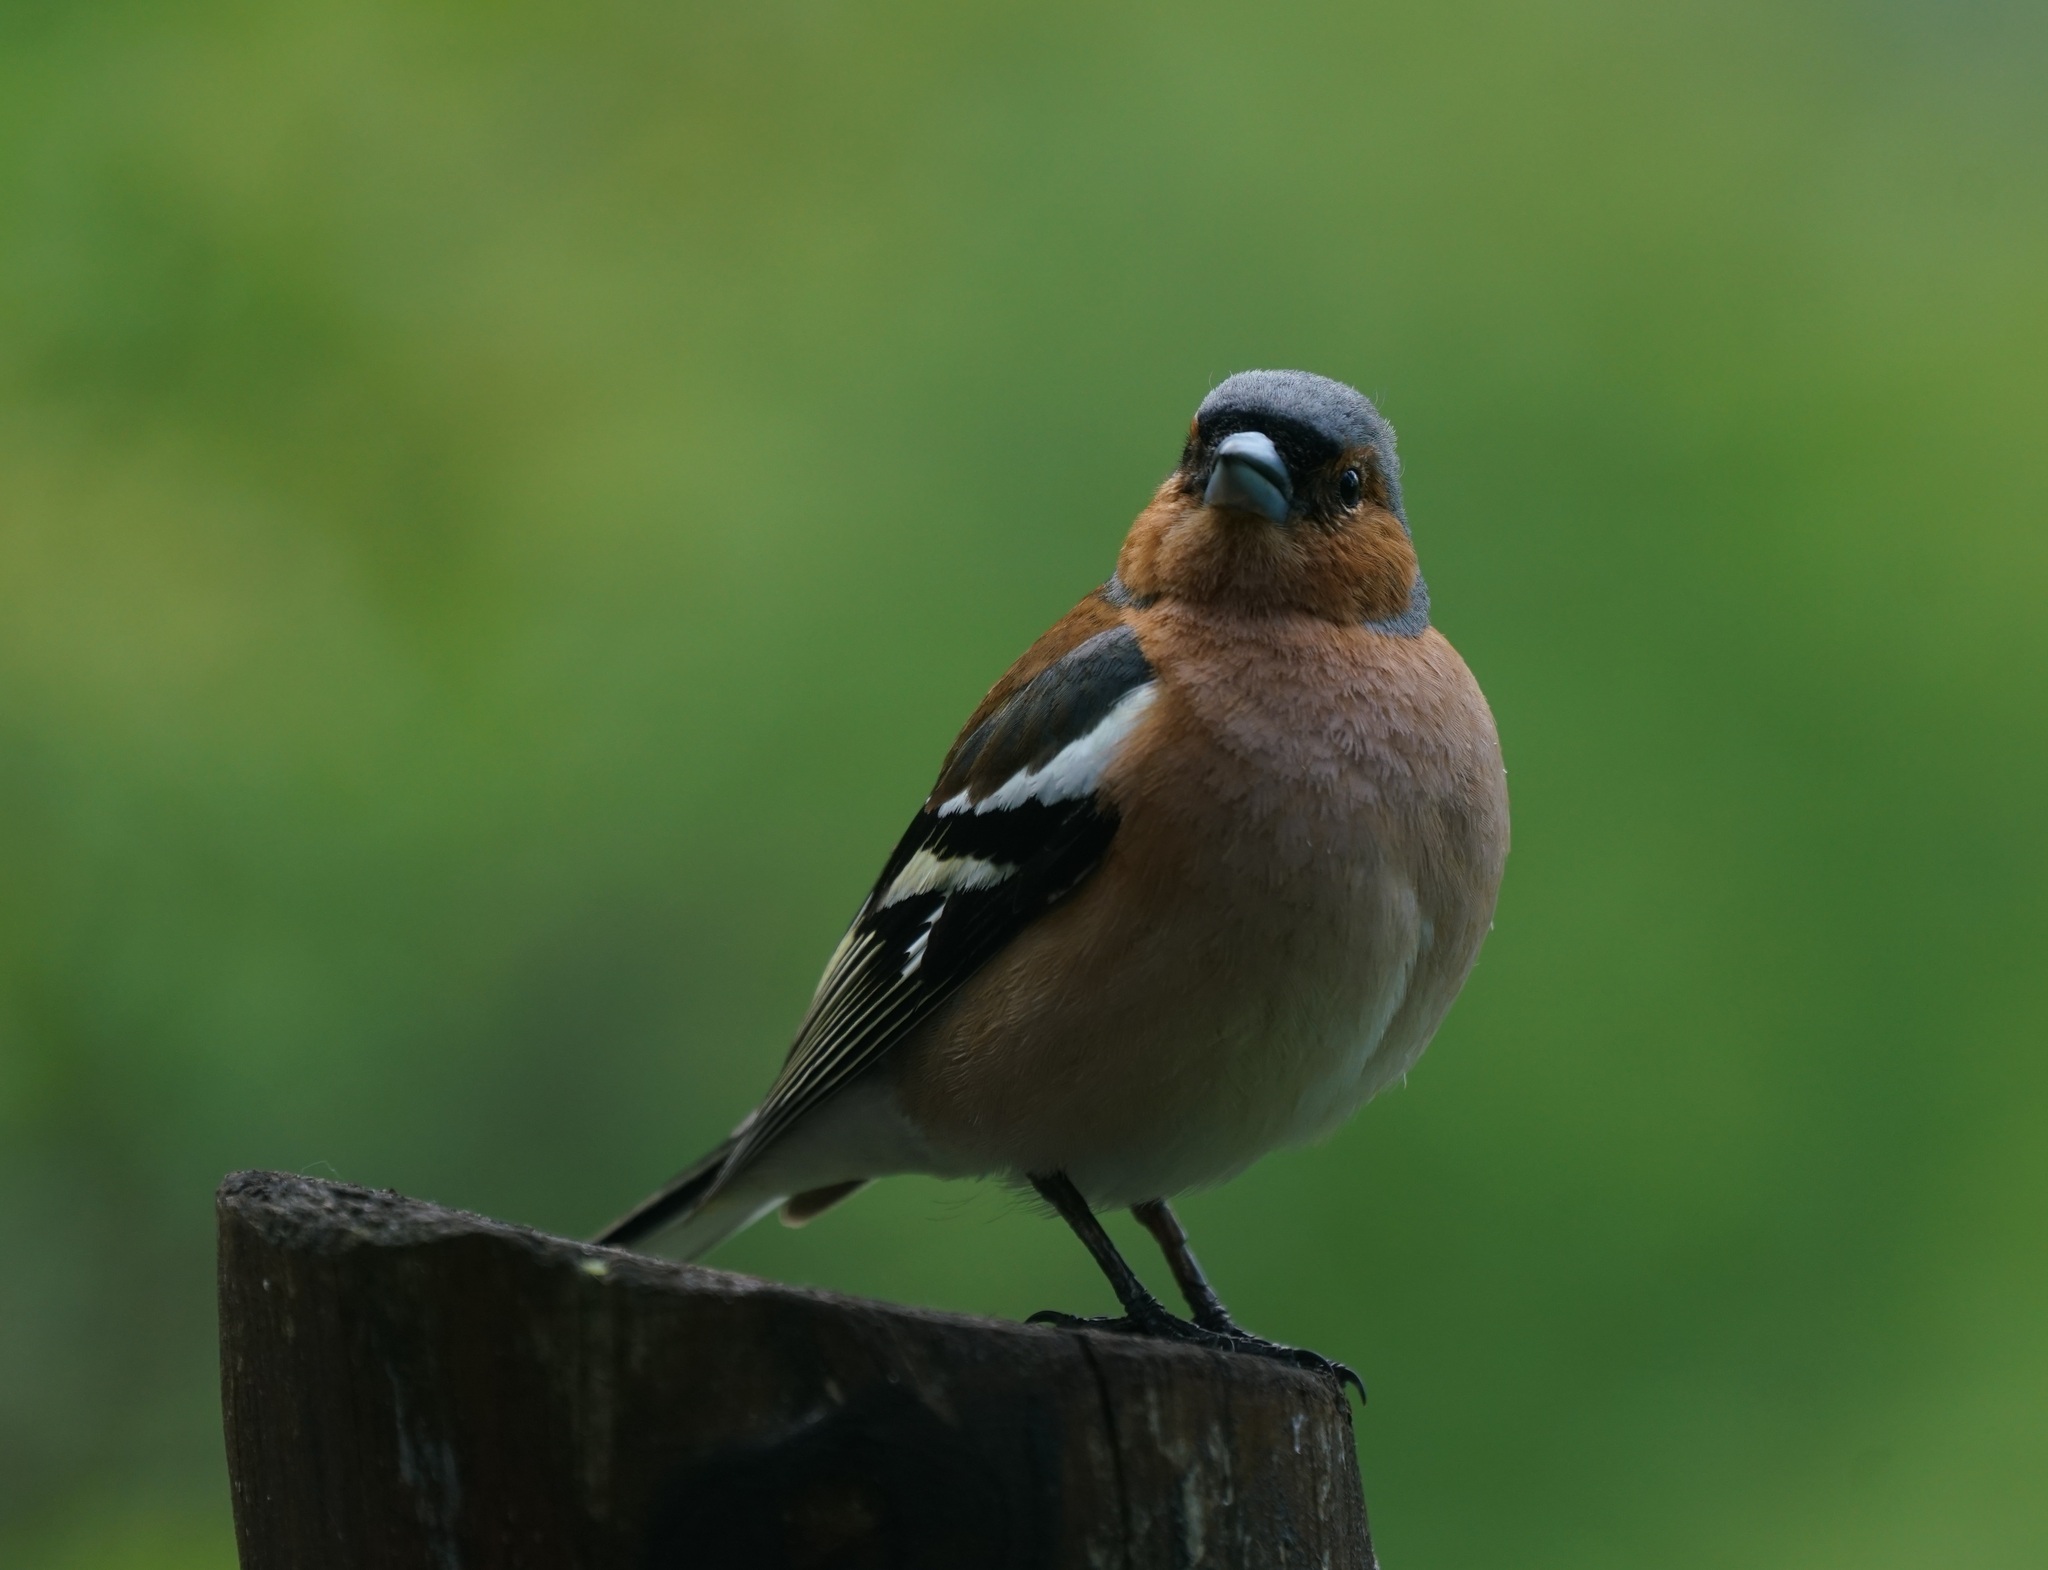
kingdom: Animalia
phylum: Chordata
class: Aves
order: Passeriformes
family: Fringillidae
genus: Fringilla
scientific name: Fringilla coelebs
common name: Common chaffinch
